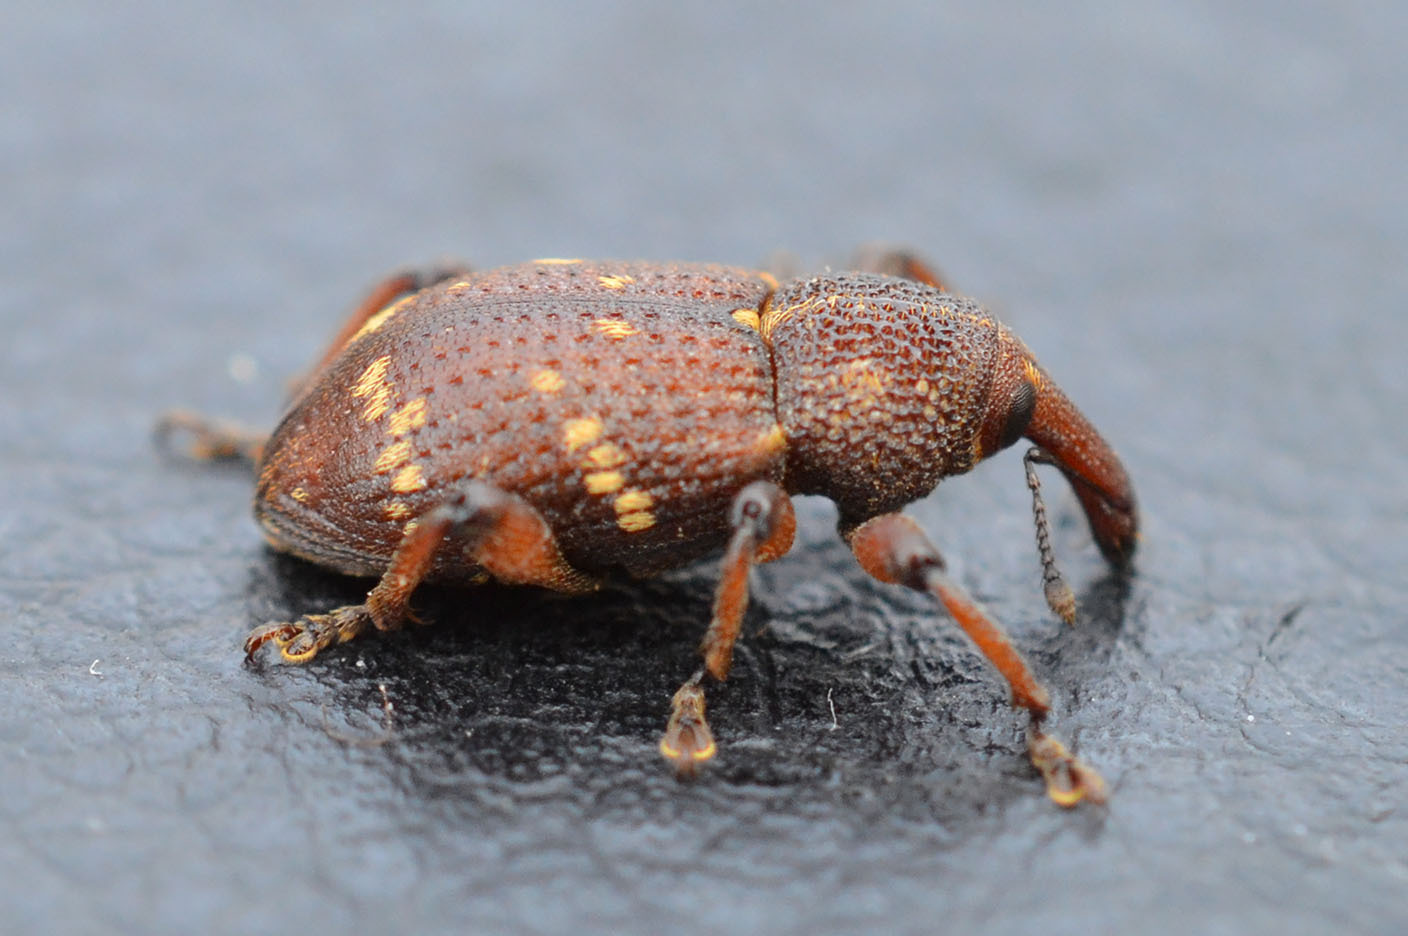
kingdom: Animalia
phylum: Arthropoda
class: Insecta
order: Coleoptera
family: Curculionidae
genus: Hylobius
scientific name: Hylobius transversovittatus
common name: Weevil
